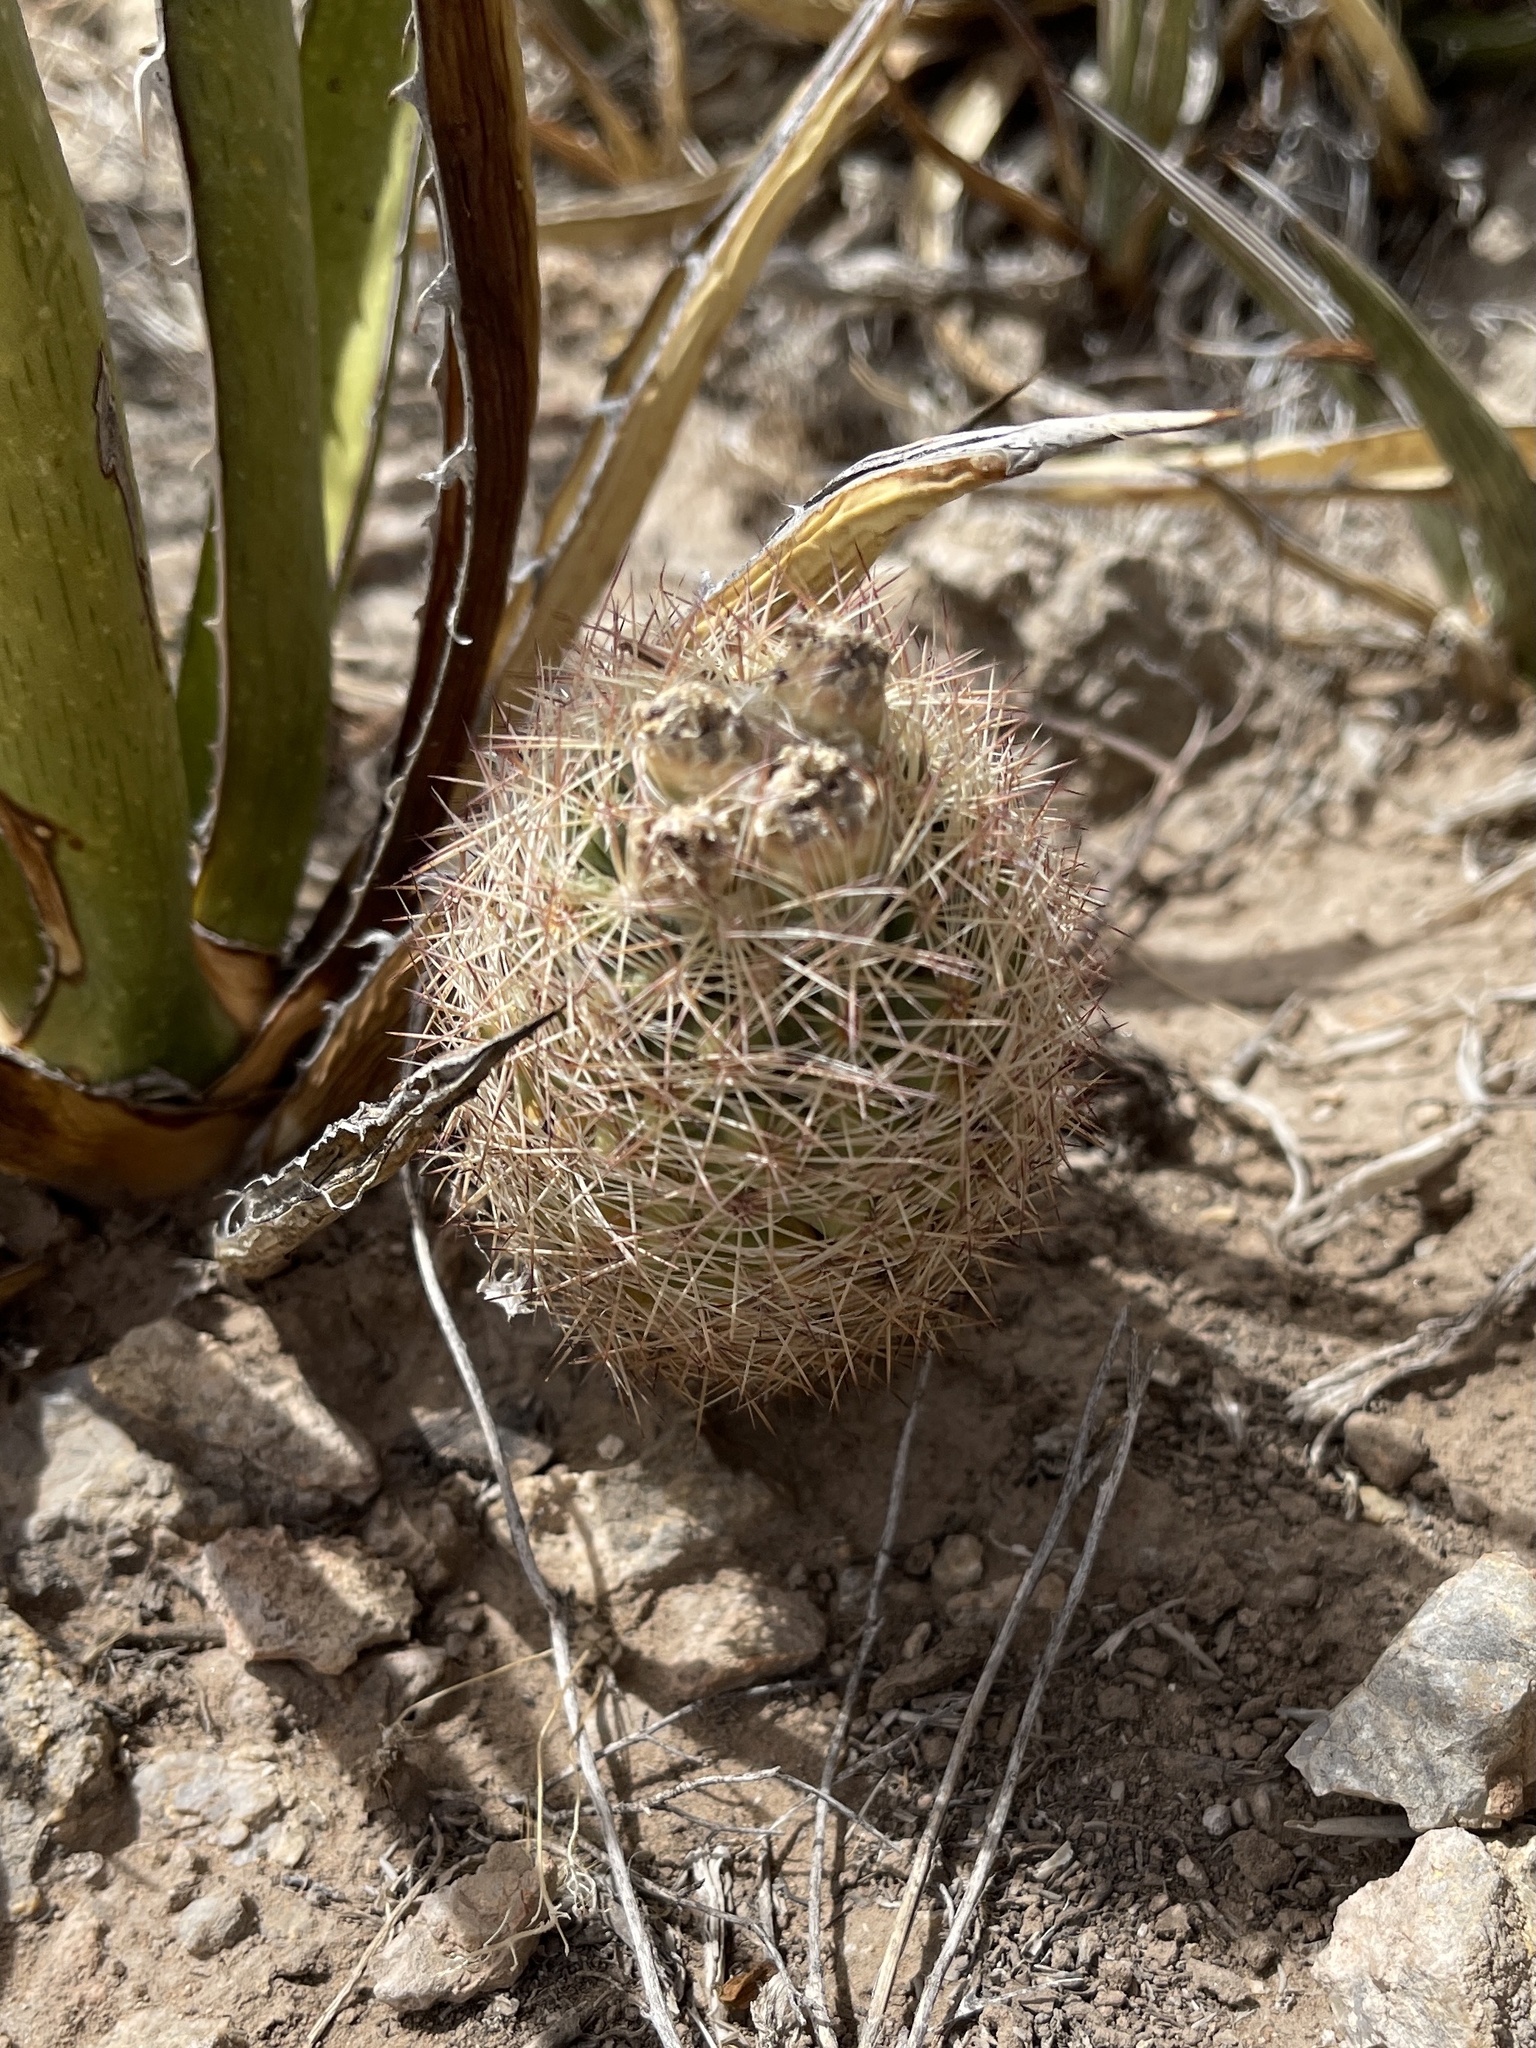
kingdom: Plantae
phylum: Tracheophyta
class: Magnoliopsida
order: Caryophyllales
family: Cactaceae
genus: Sclerocactus
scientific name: Sclerocactus intertextus
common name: White fish-hook cactus
